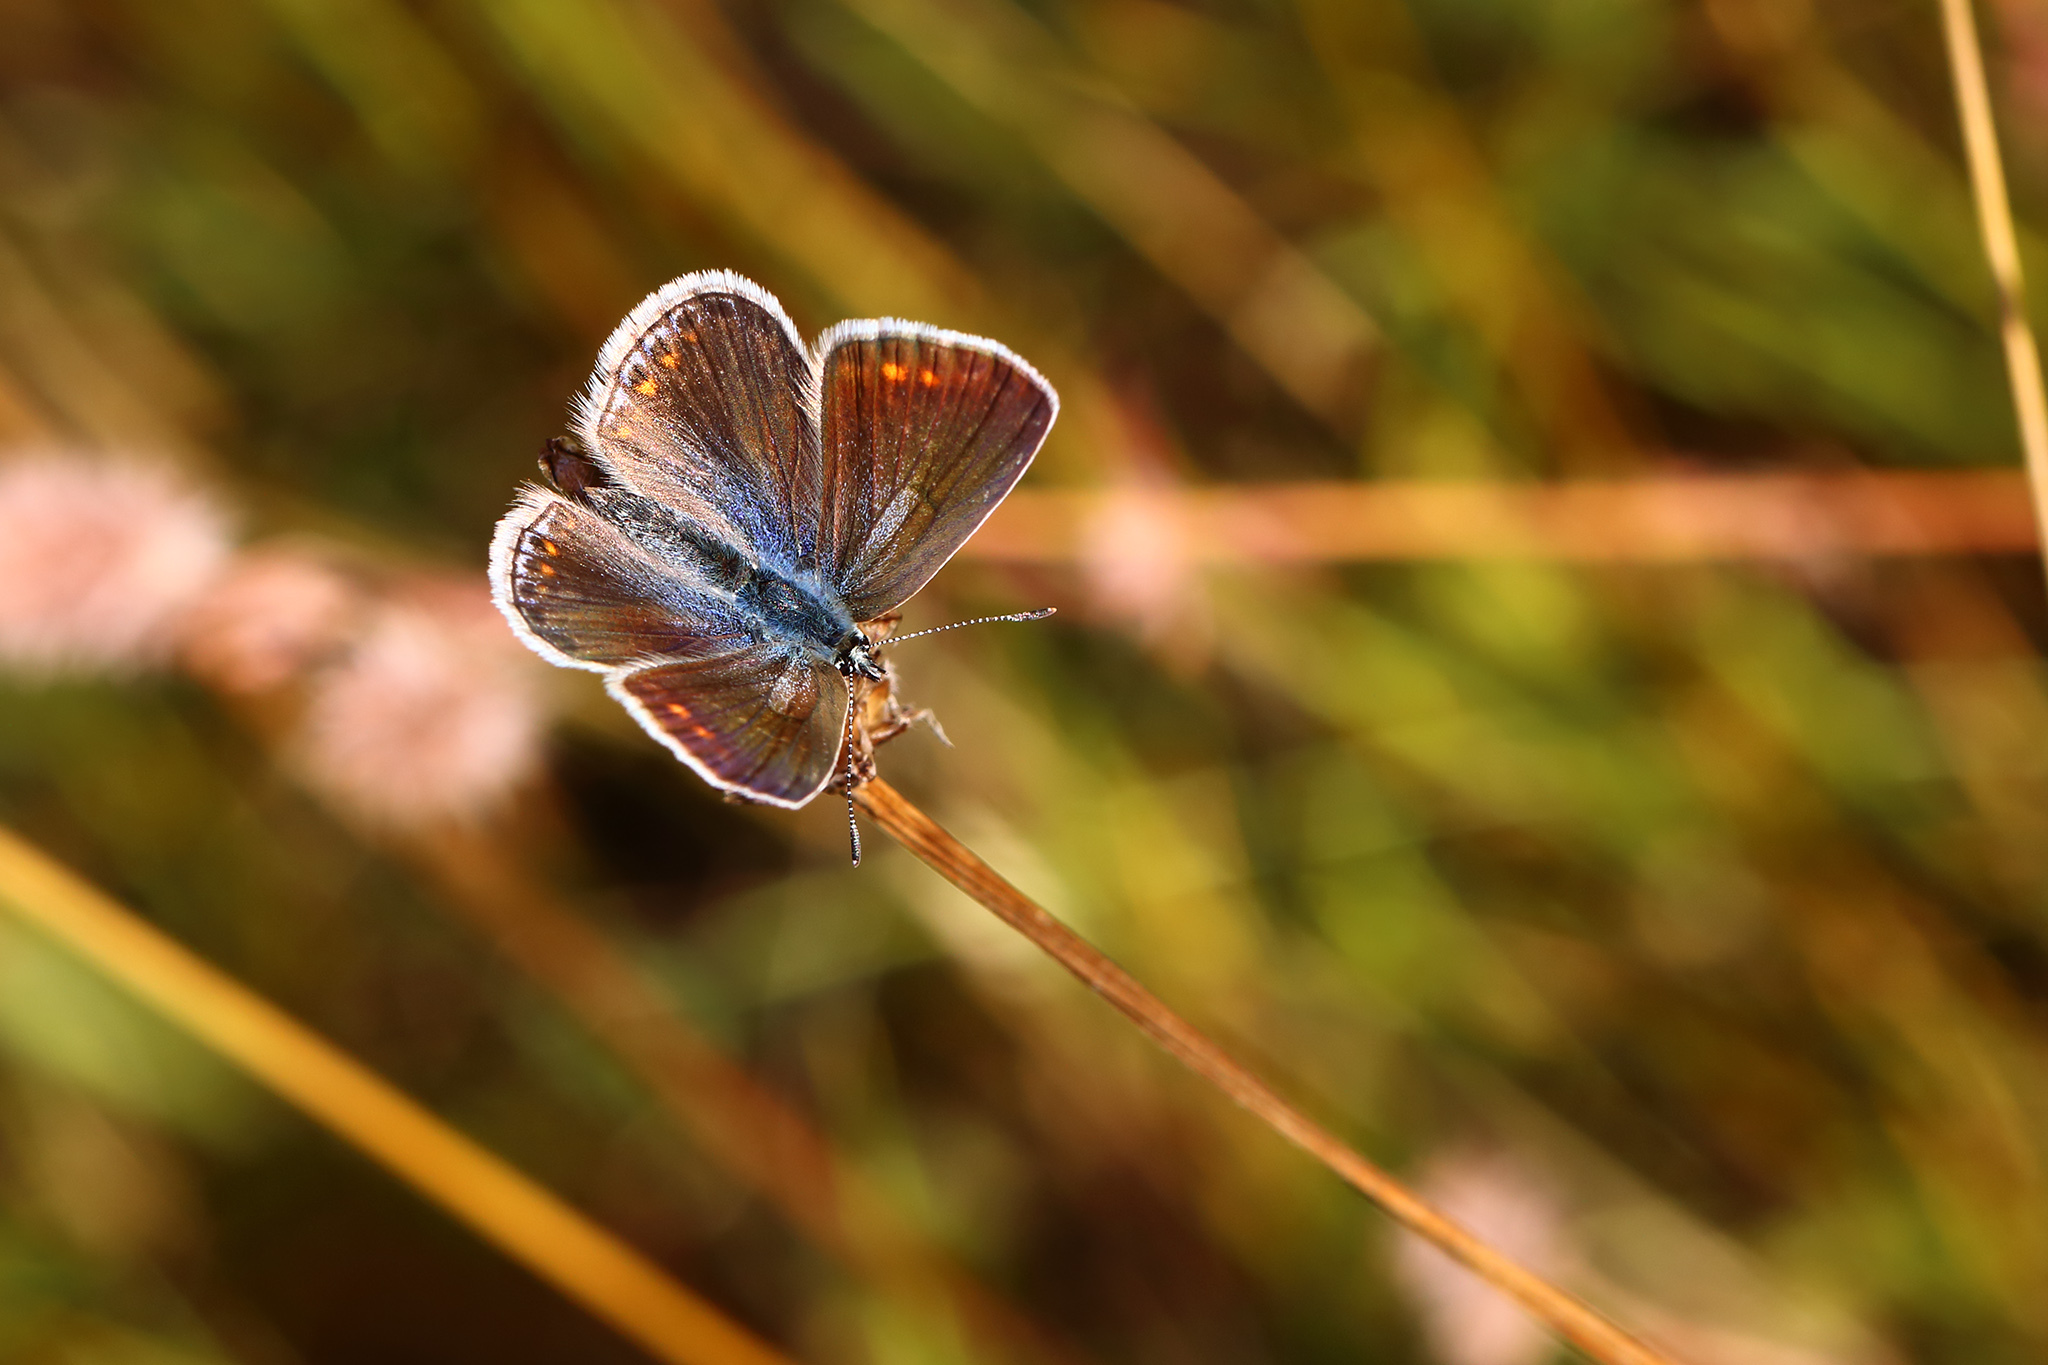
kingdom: Animalia
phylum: Arthropoda
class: Insecta
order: Lepidoptera
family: Lycaenidae
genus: Polyommatus
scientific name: Polyommatus icarus
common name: Common blue
